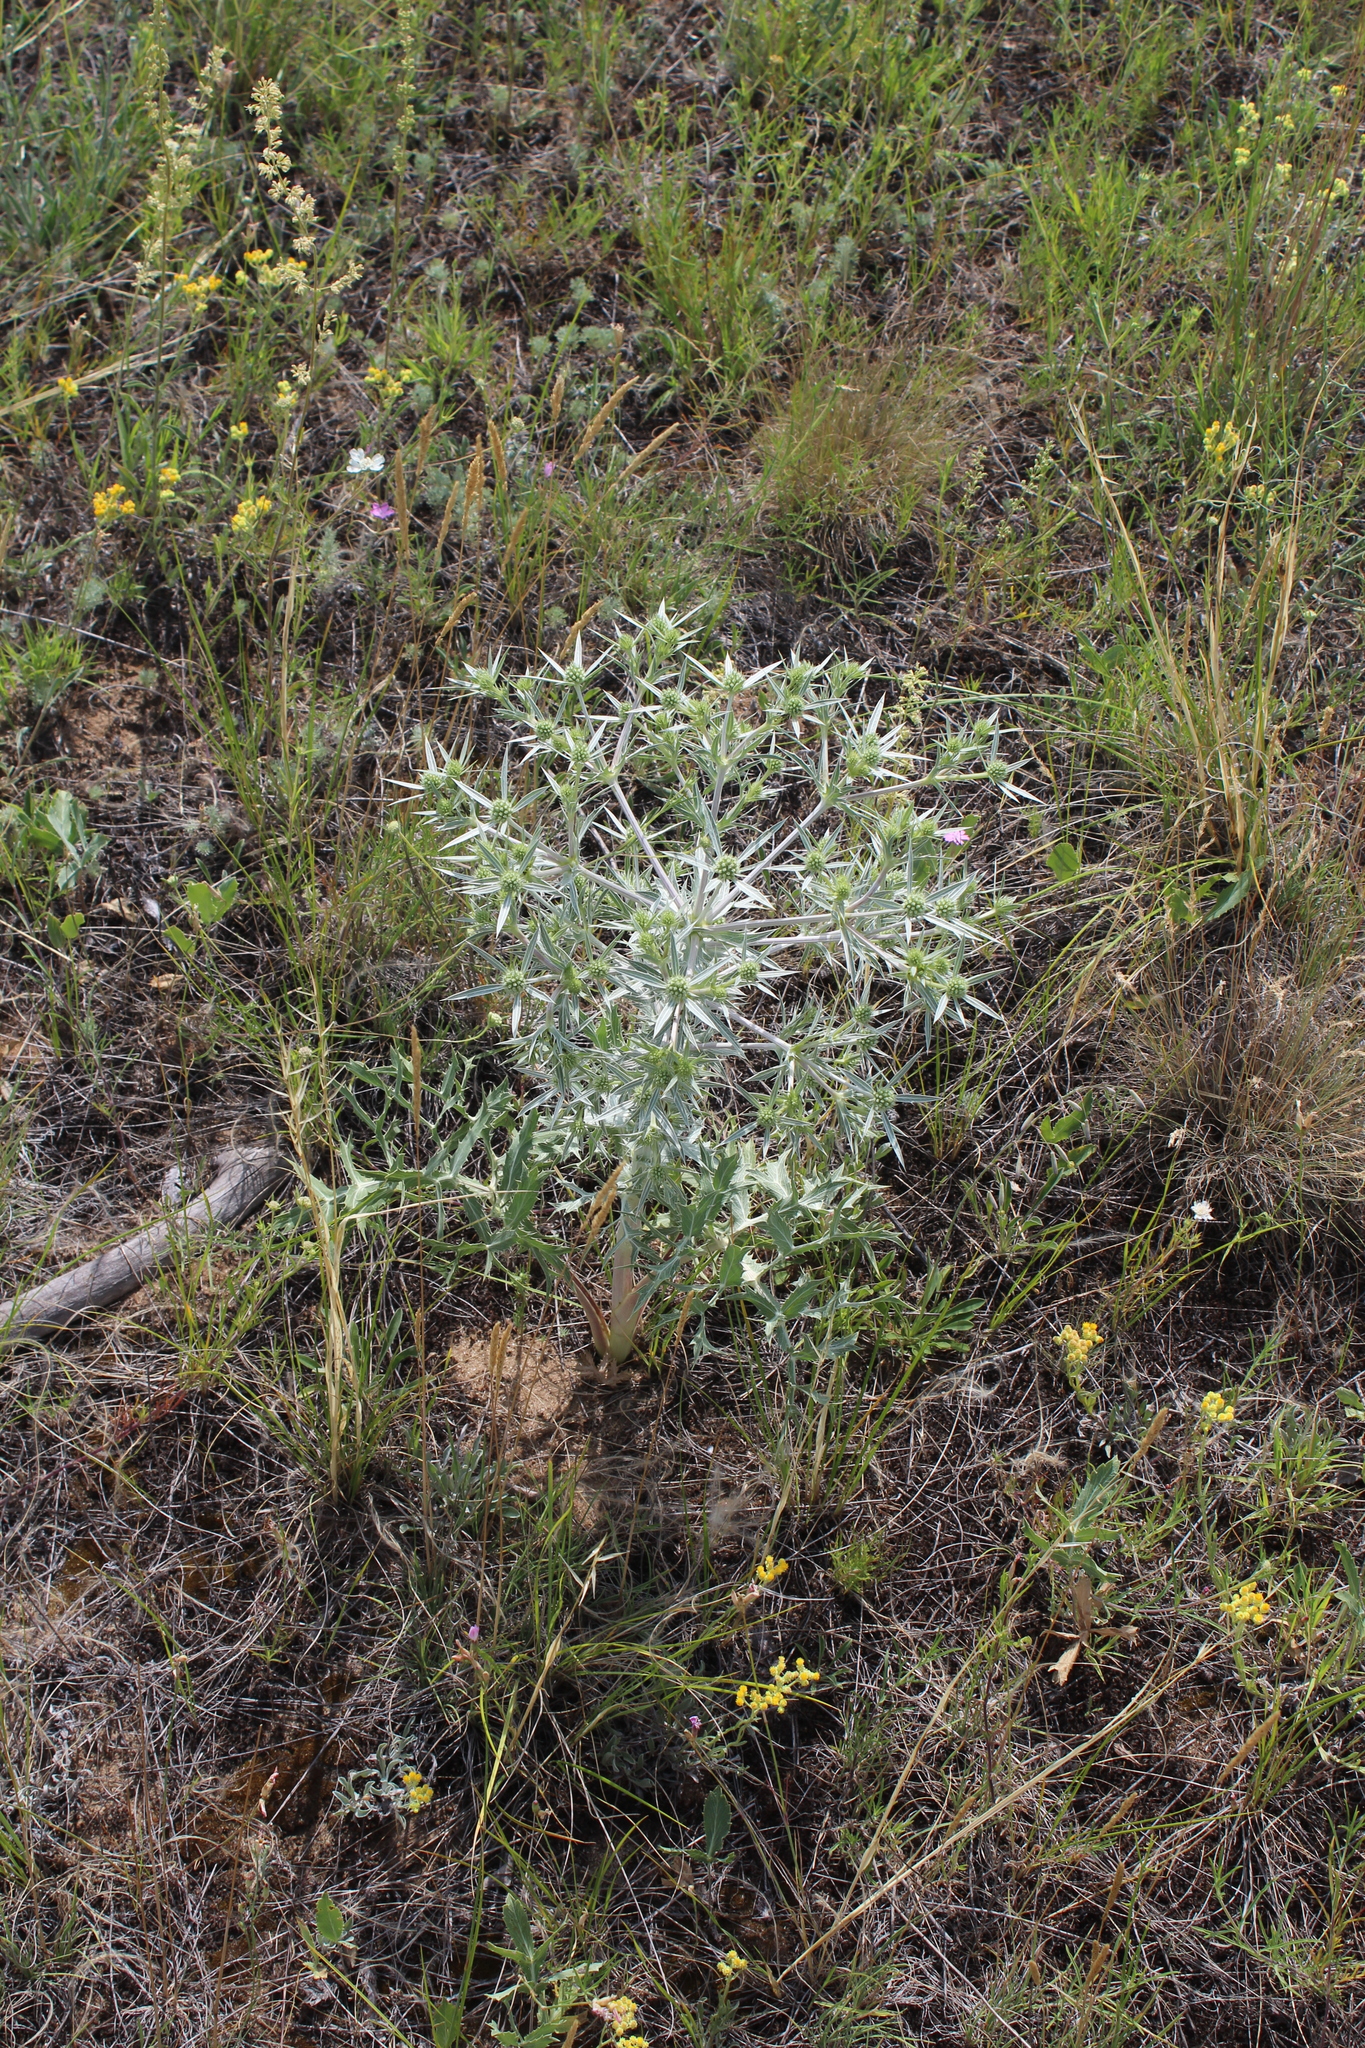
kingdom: Plantae
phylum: Tracheophyta
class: Magnoliopsida
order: Apiales
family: Apiaceae
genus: Eryngium
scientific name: Eryngium campestre
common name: Field eryngo
